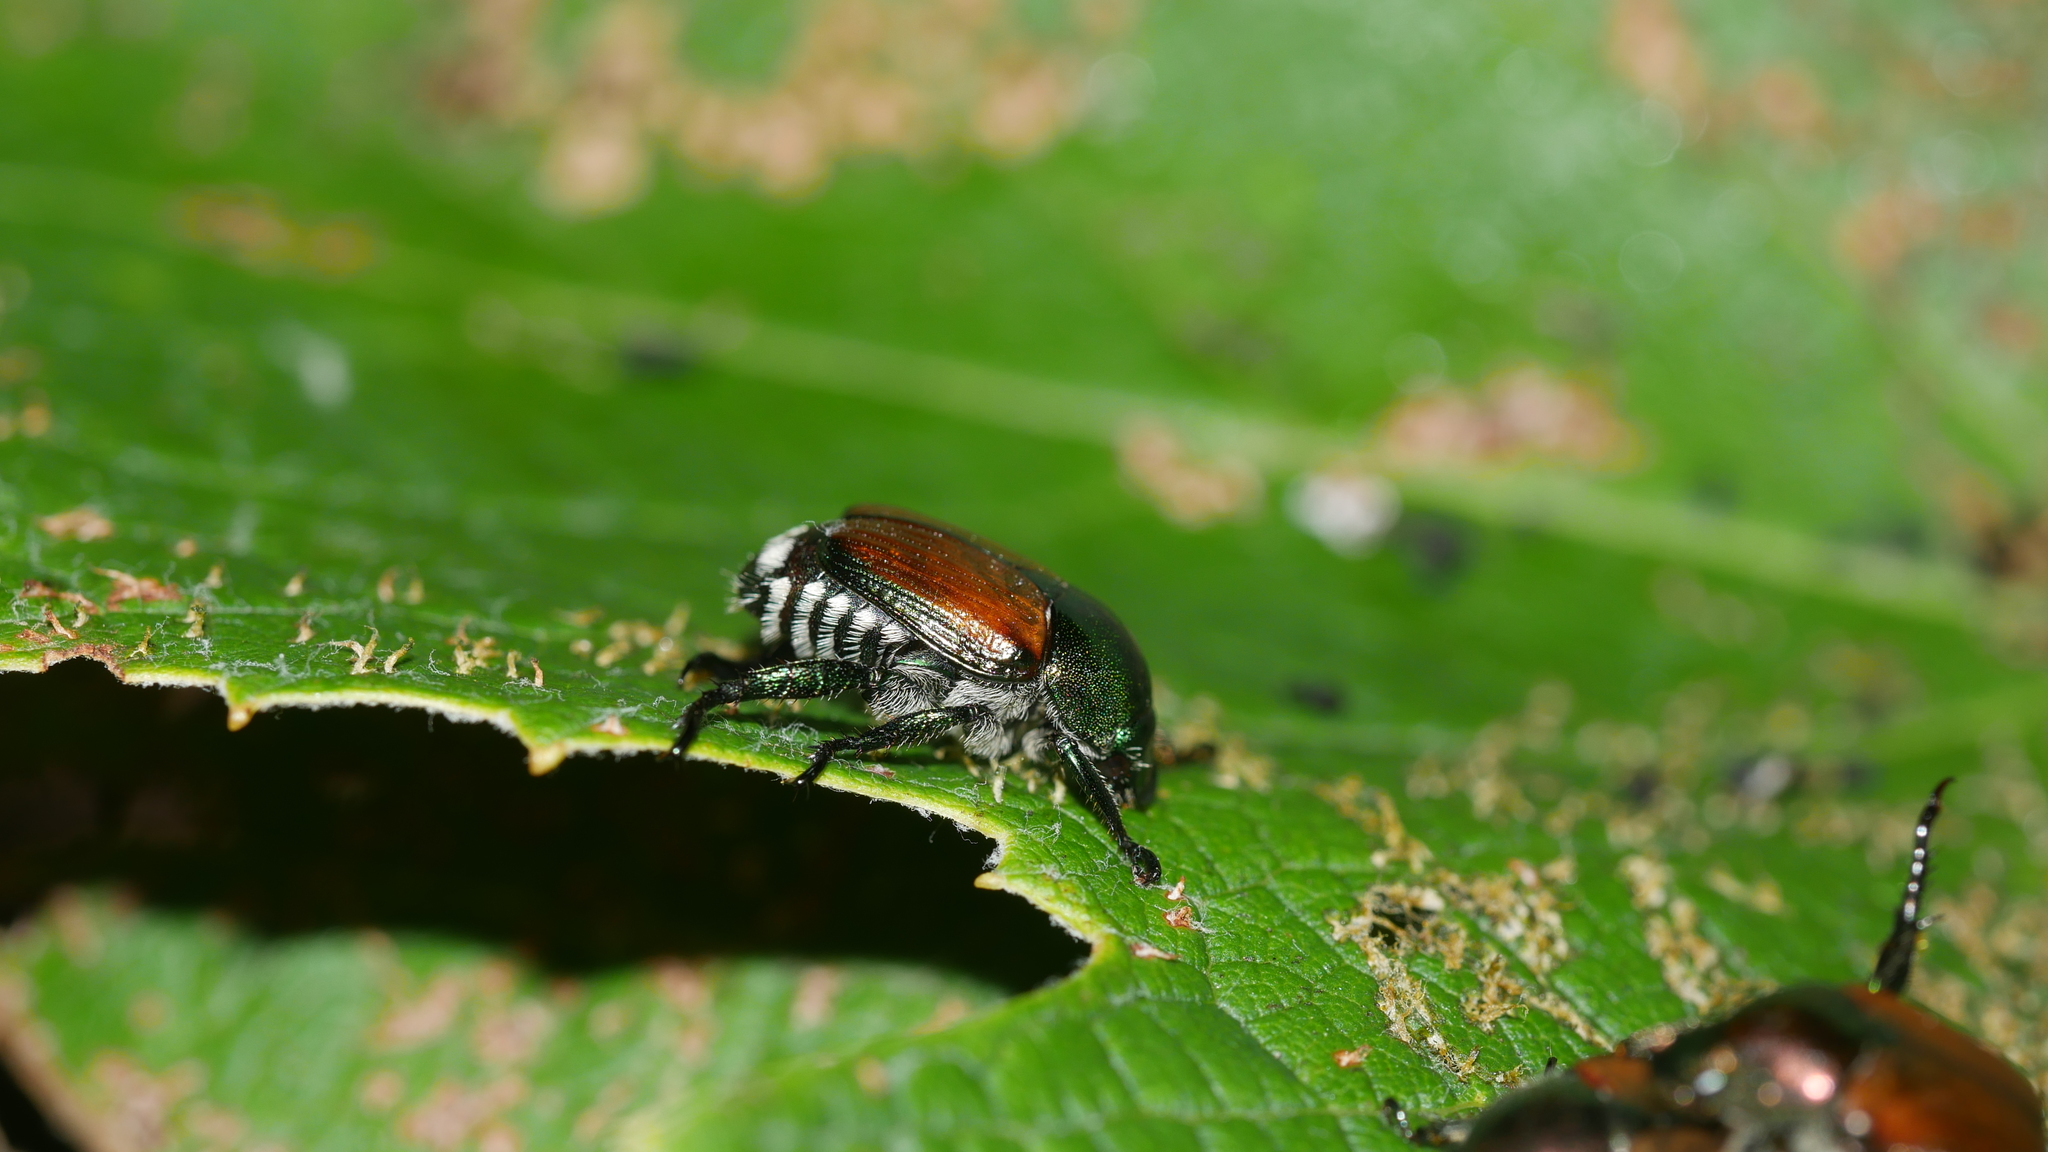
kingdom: Animalia
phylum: Arthropoda
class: Insecta
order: Coleoptera
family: Scarabaeidae
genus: Popillia
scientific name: Popillia japonica
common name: Japanese beetle
